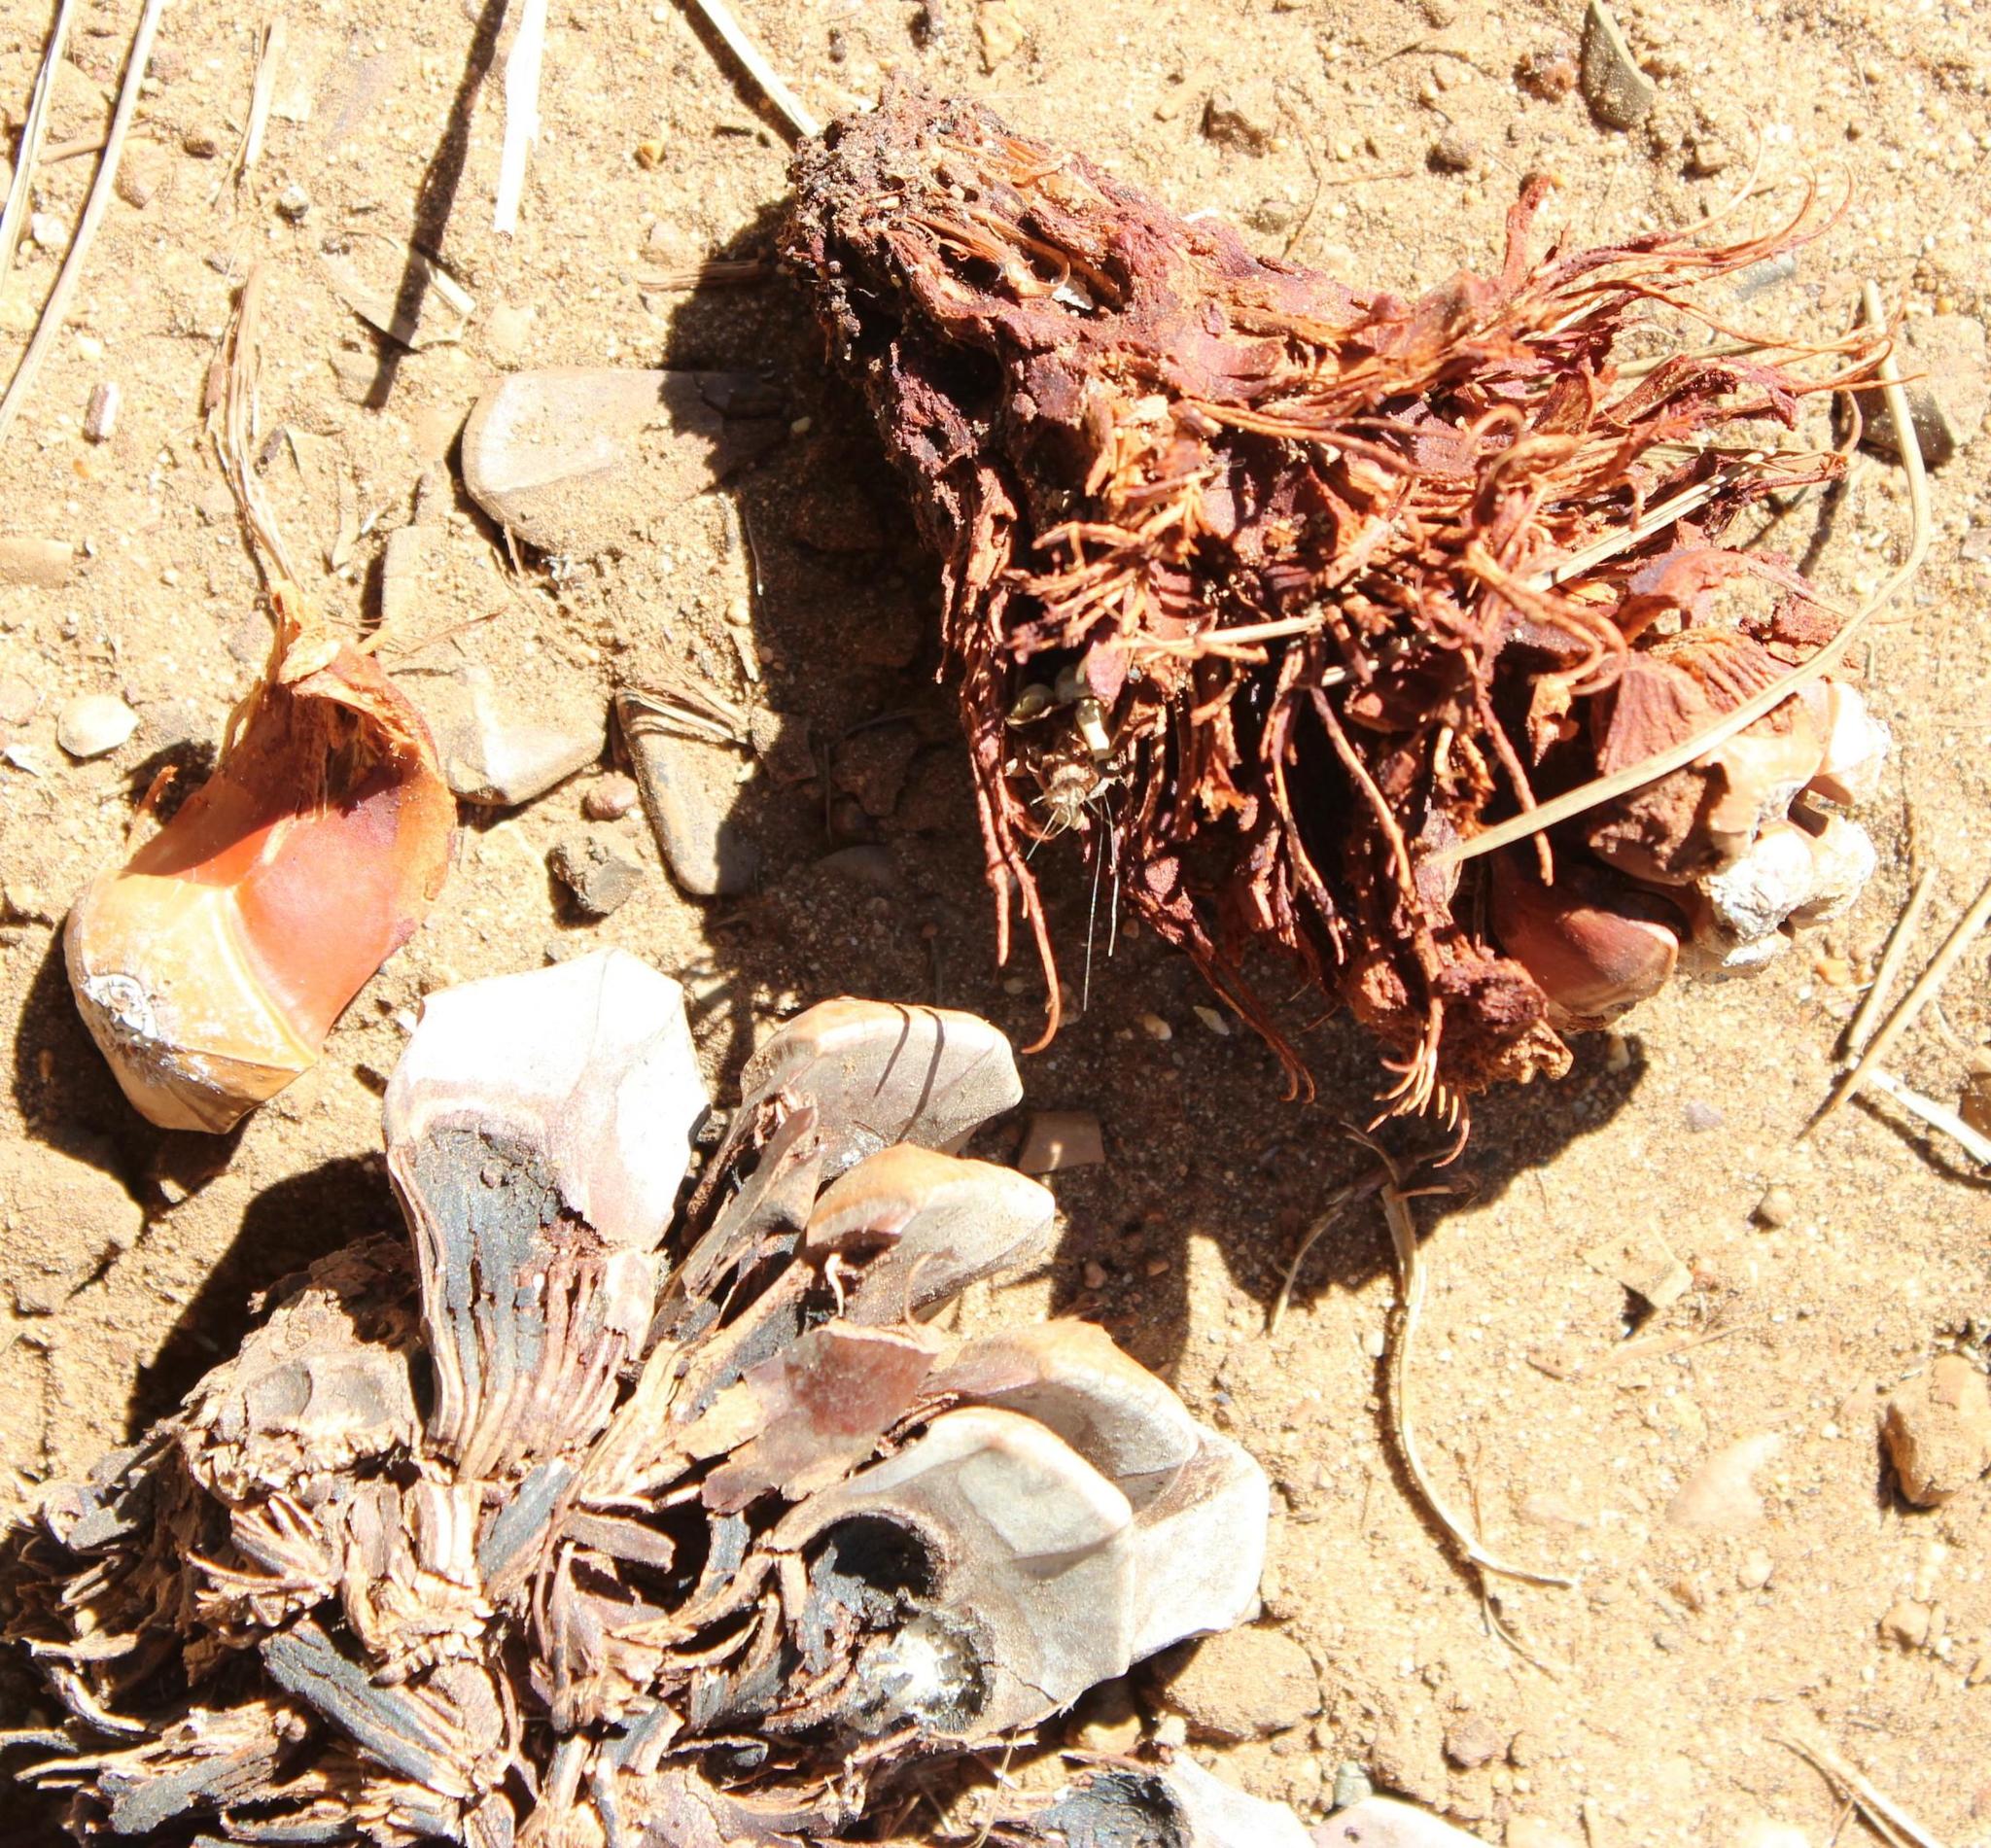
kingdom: Plantae
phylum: Tracheophyta
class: Pinopsida
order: Pinales
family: Pinaceae
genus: Pinus
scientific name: Pinus pinea
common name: Italian stone pine
